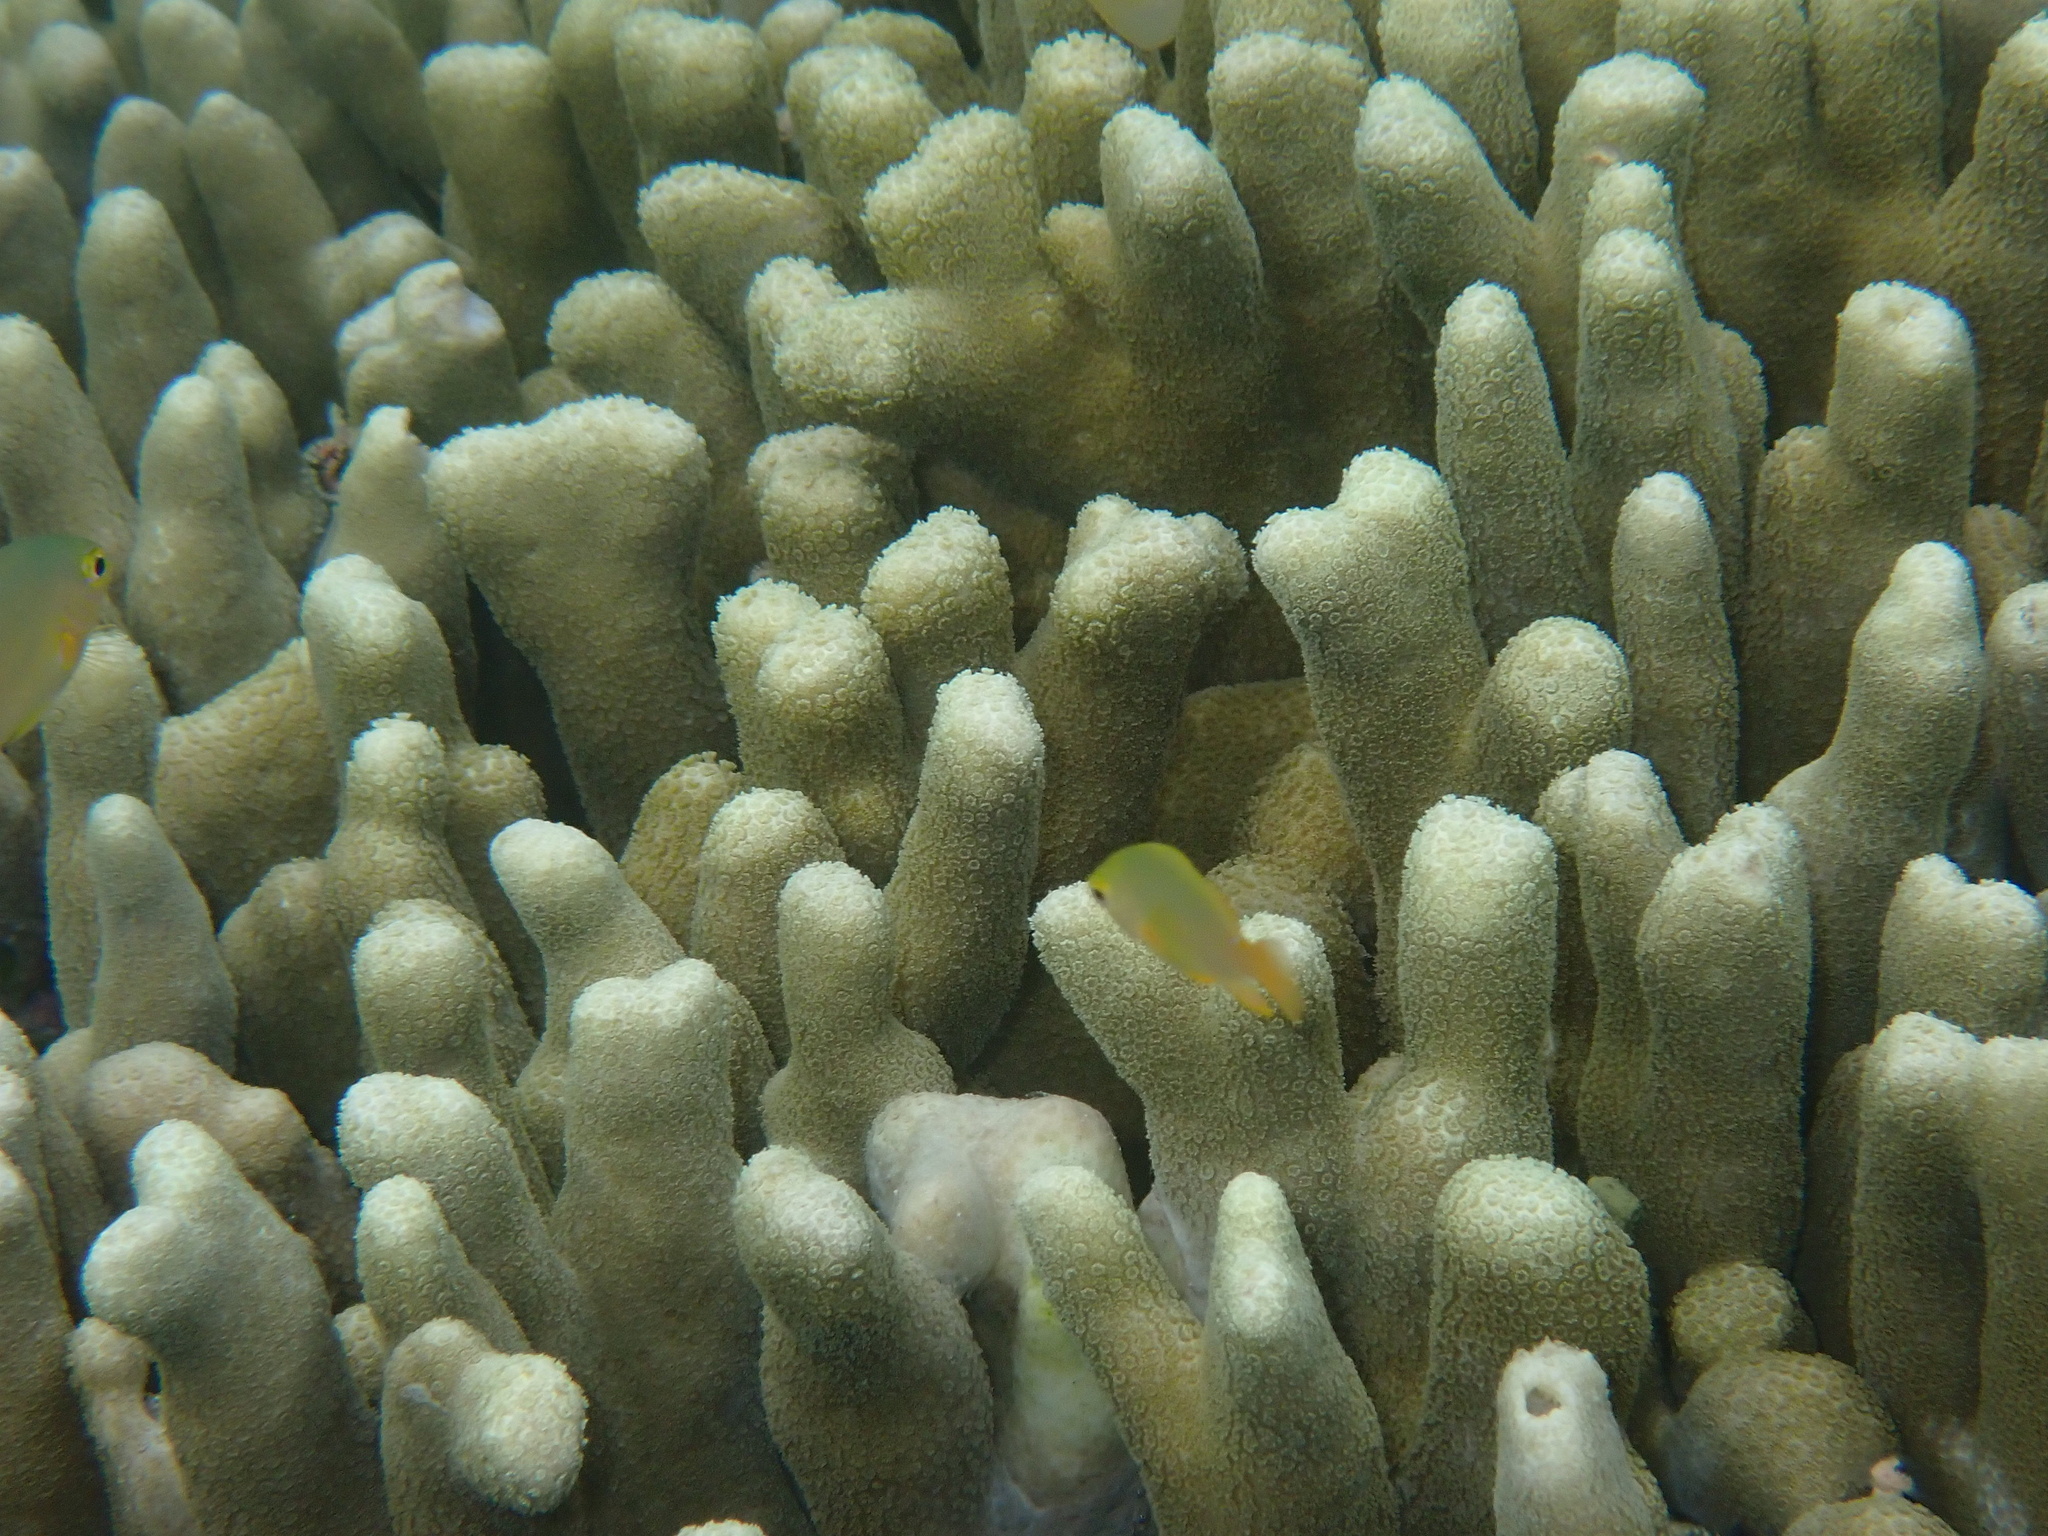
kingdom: Animalia
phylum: Cnidaria
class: Anthozoa
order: Scleractinia
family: Poritidae
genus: Porites
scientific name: Porites cylindrica
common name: Hump coral
